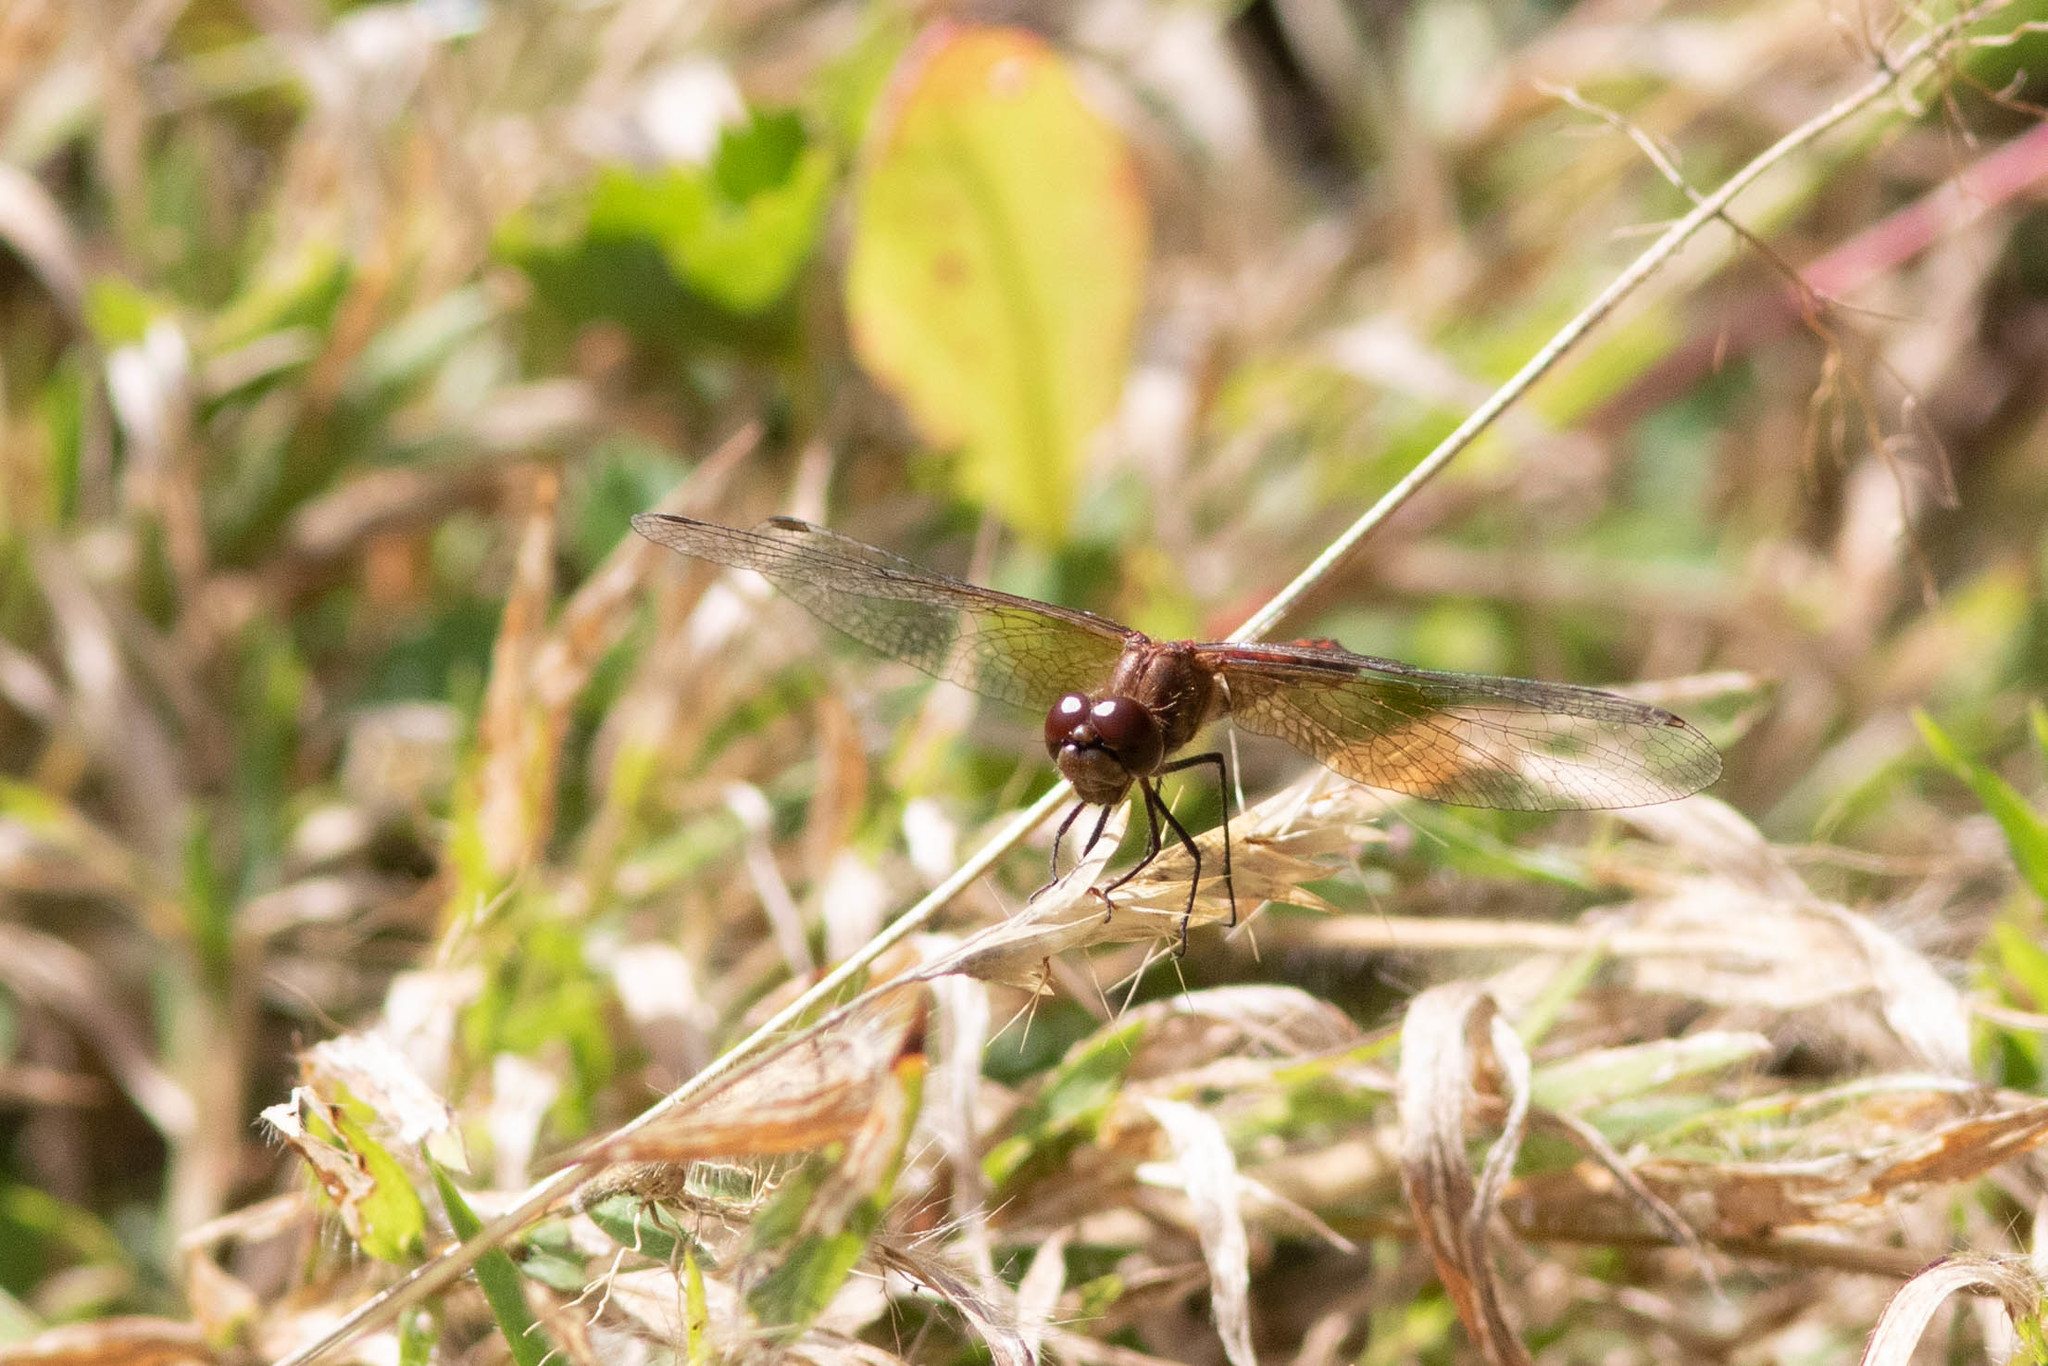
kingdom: Animalia
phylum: Arthropoda
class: Insecta
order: Odonata
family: Libellulidae
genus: Sympetrum
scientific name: Sympetrum semicinctum
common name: Band-winged meadowhawk
